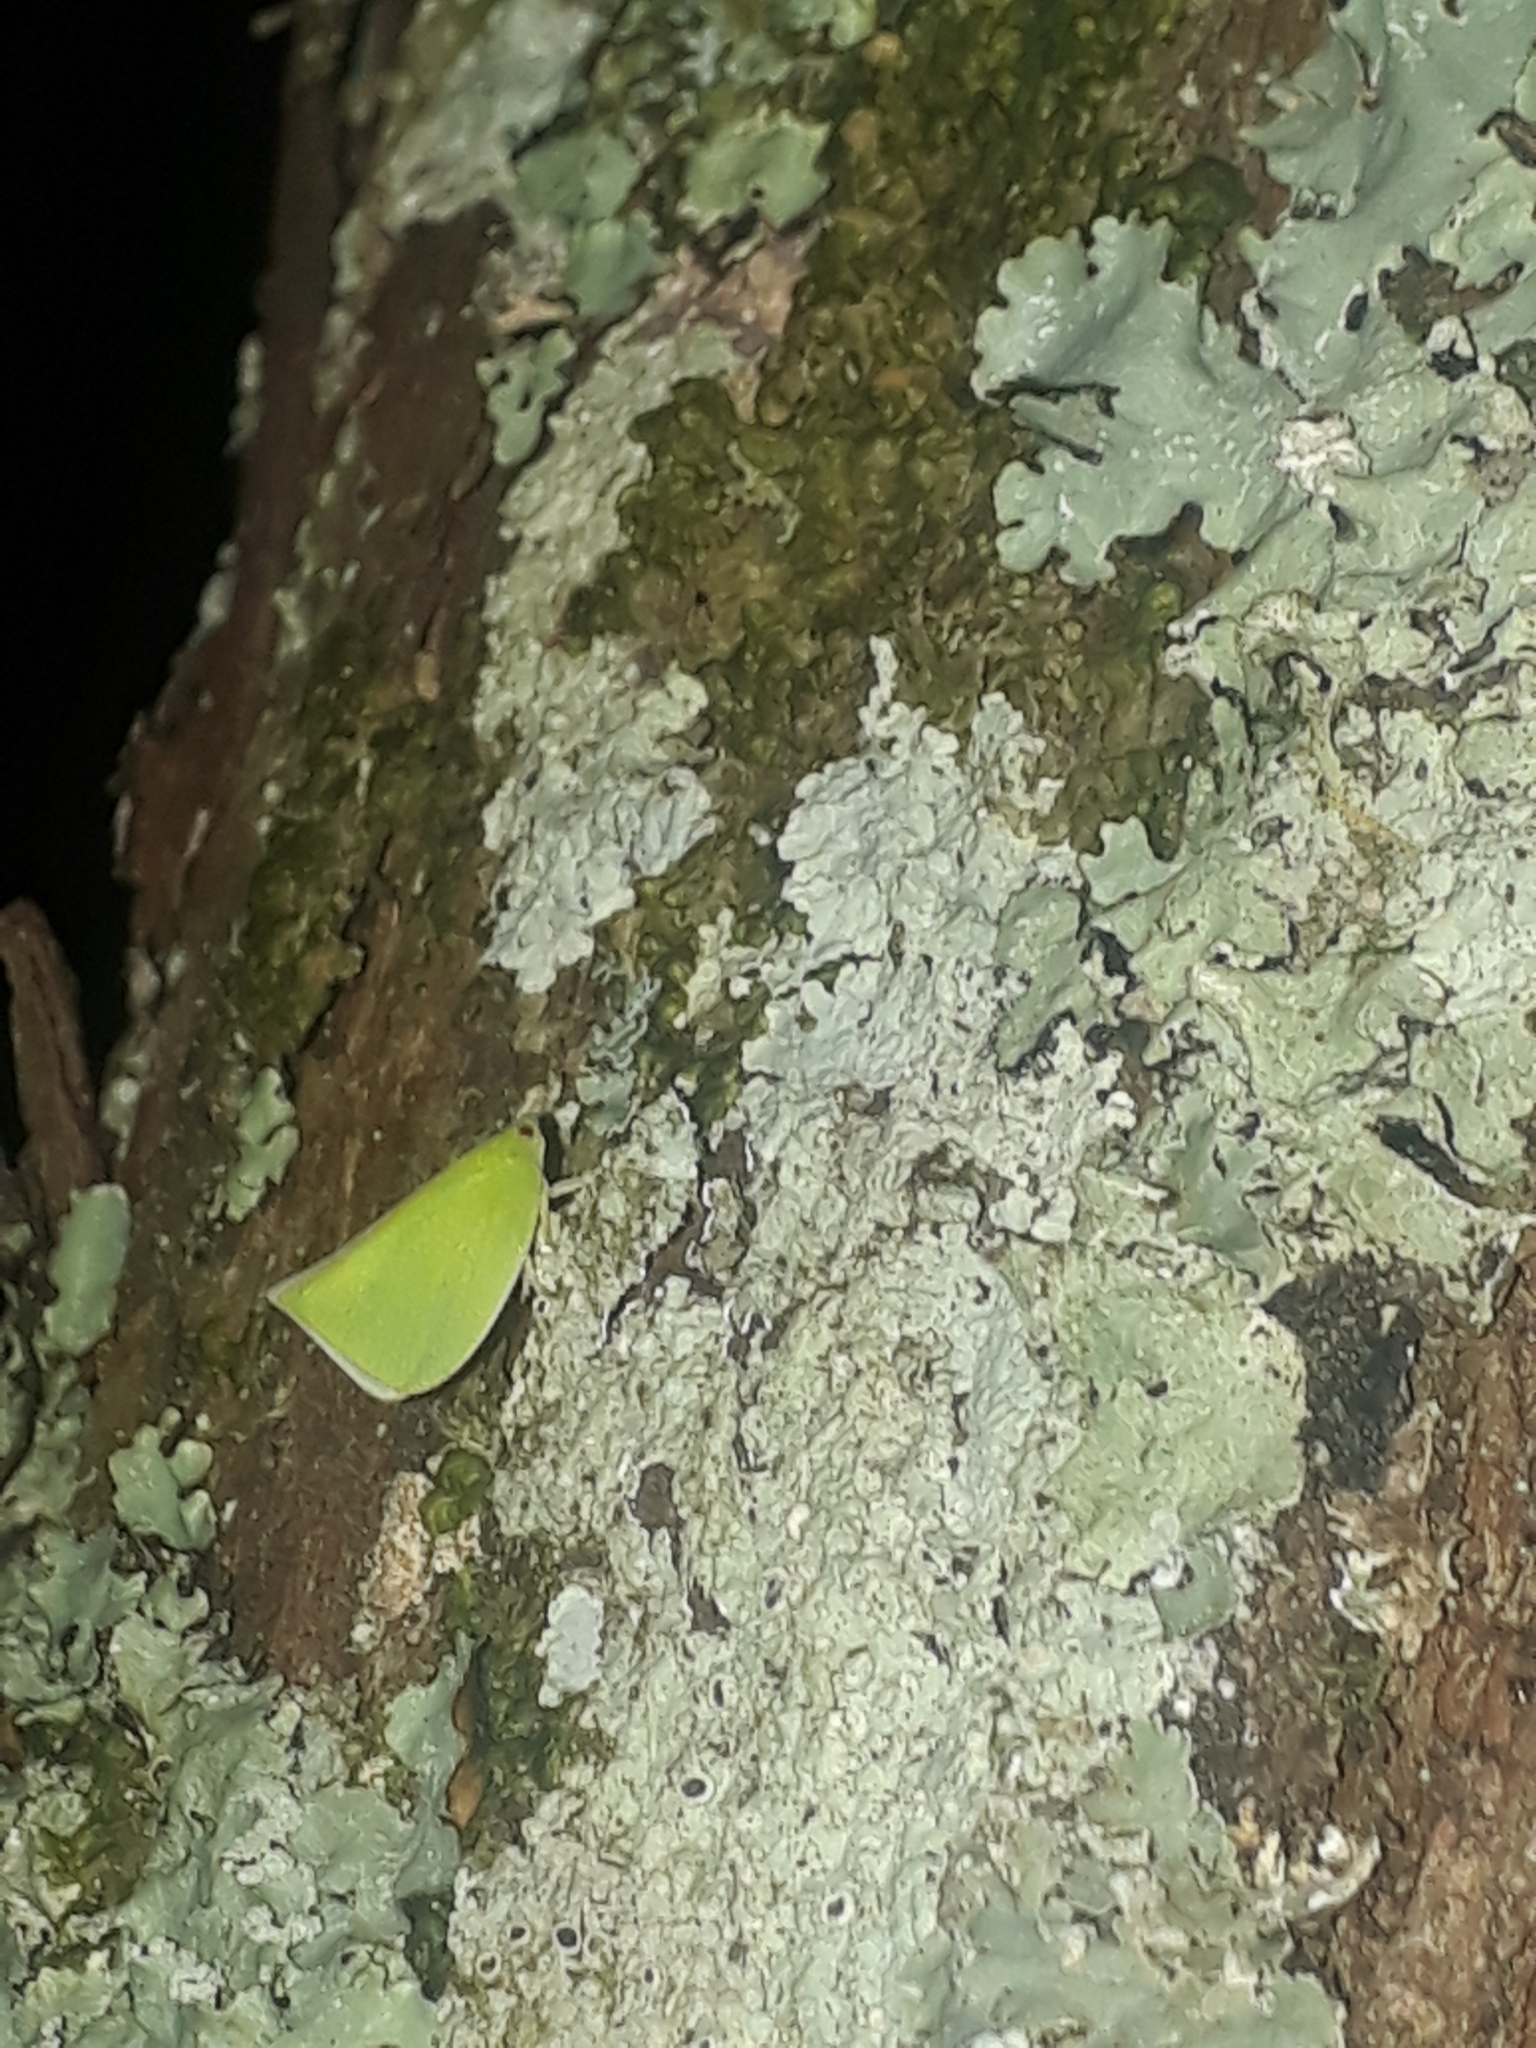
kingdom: Animalia
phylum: Arthropoda
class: Insecta
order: Hemiptera
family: Flatidae
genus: Siphanta
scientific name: Siphanta acuta
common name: Torpedo bug
